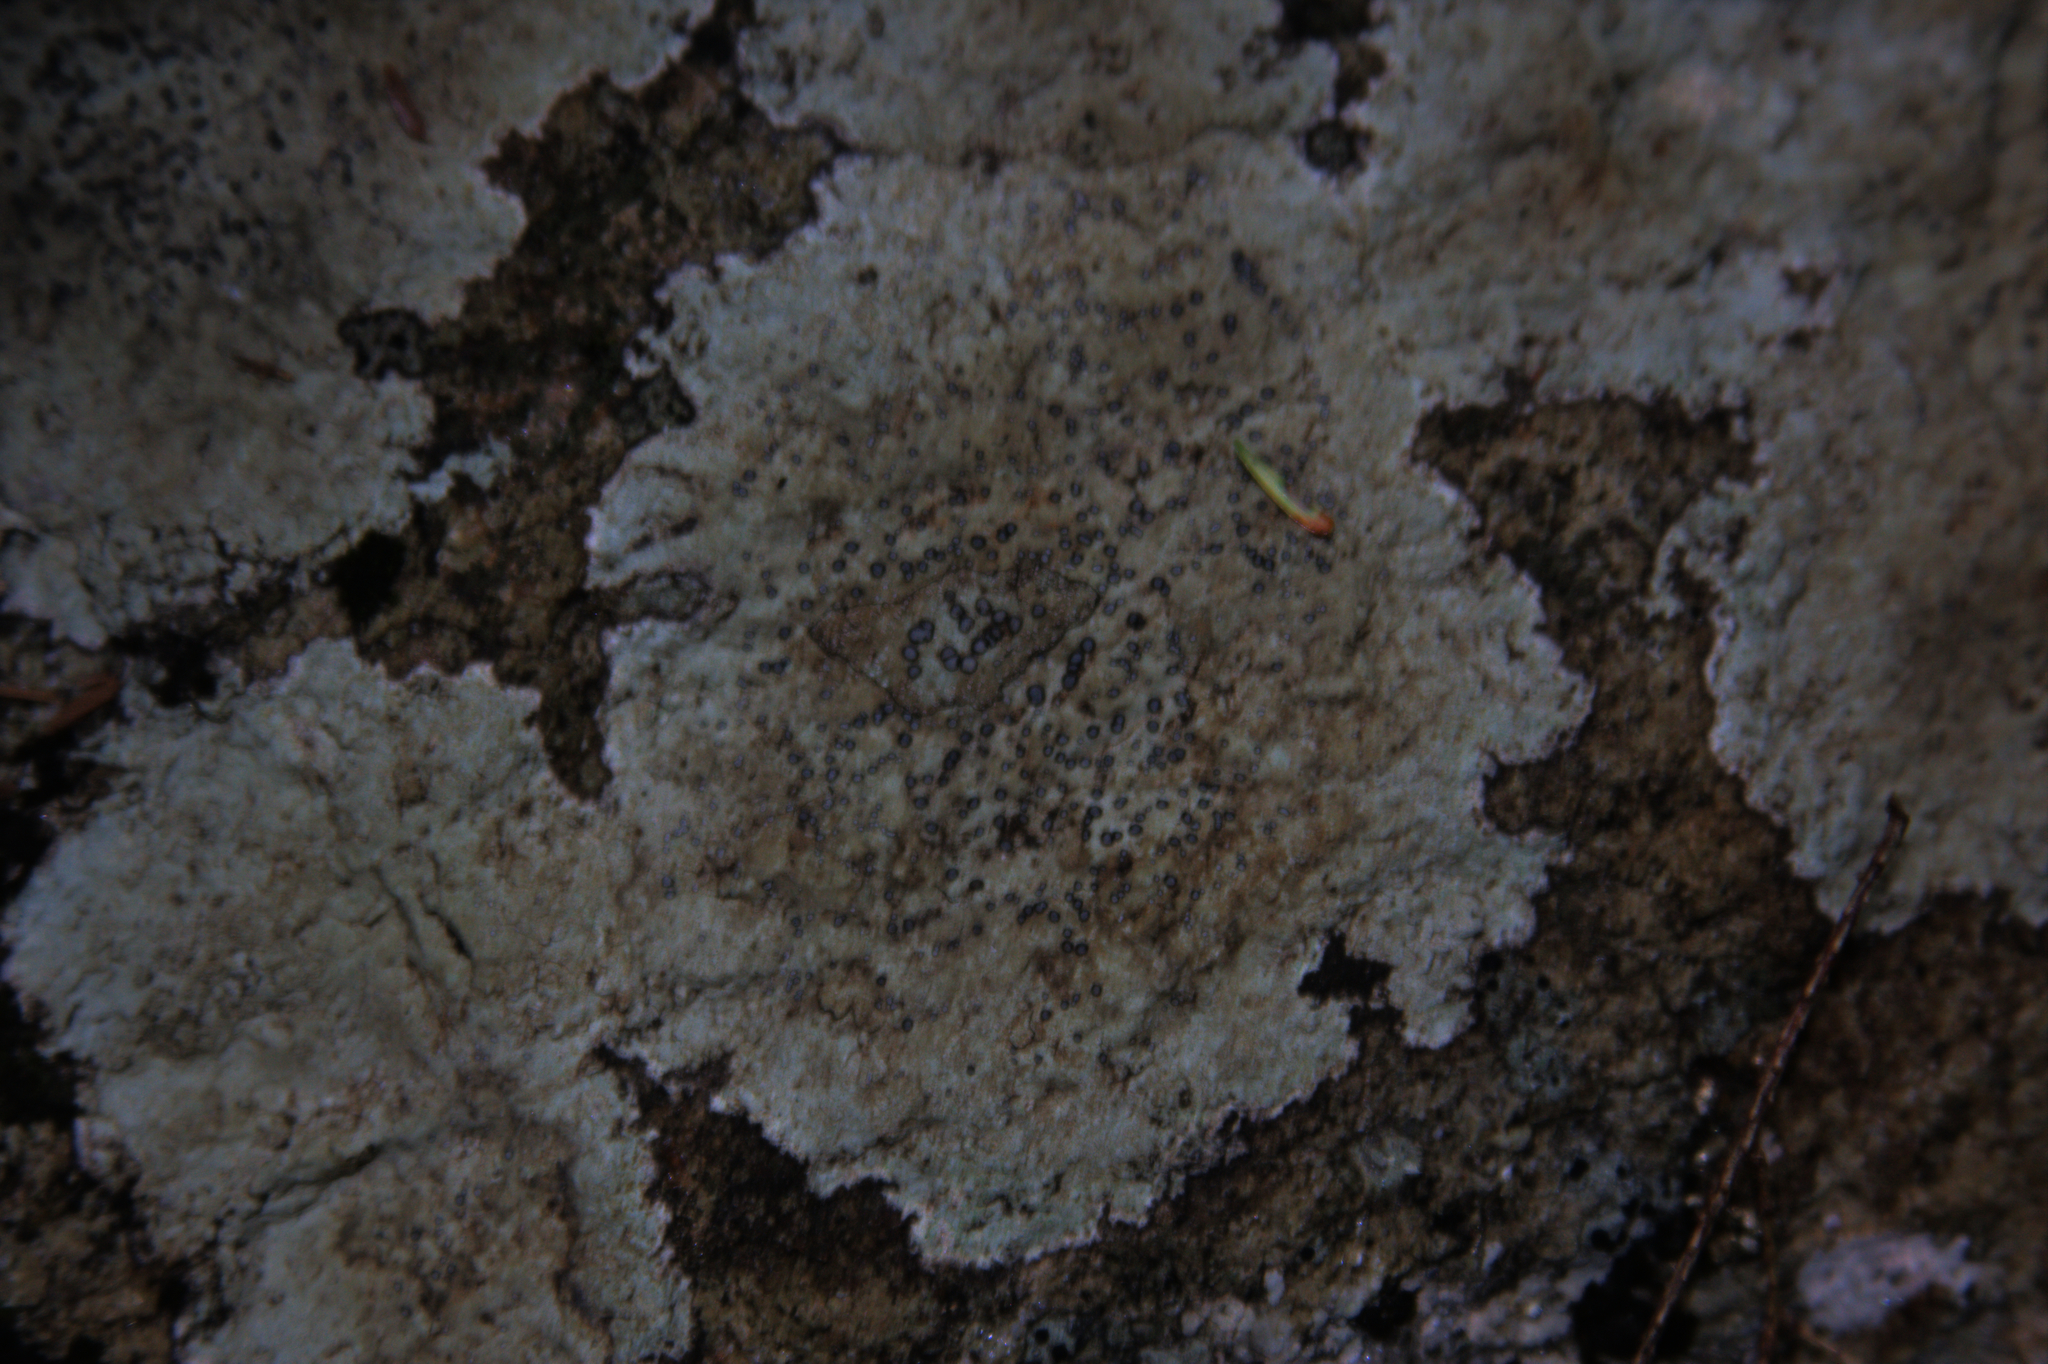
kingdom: Fungi
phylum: Ascomycota
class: Lecanoromycetes
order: Lecideales
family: Lecideaceae
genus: Porpidia
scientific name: Porpidia albocaerulescens
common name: Smokey-eyed boulder lichen
